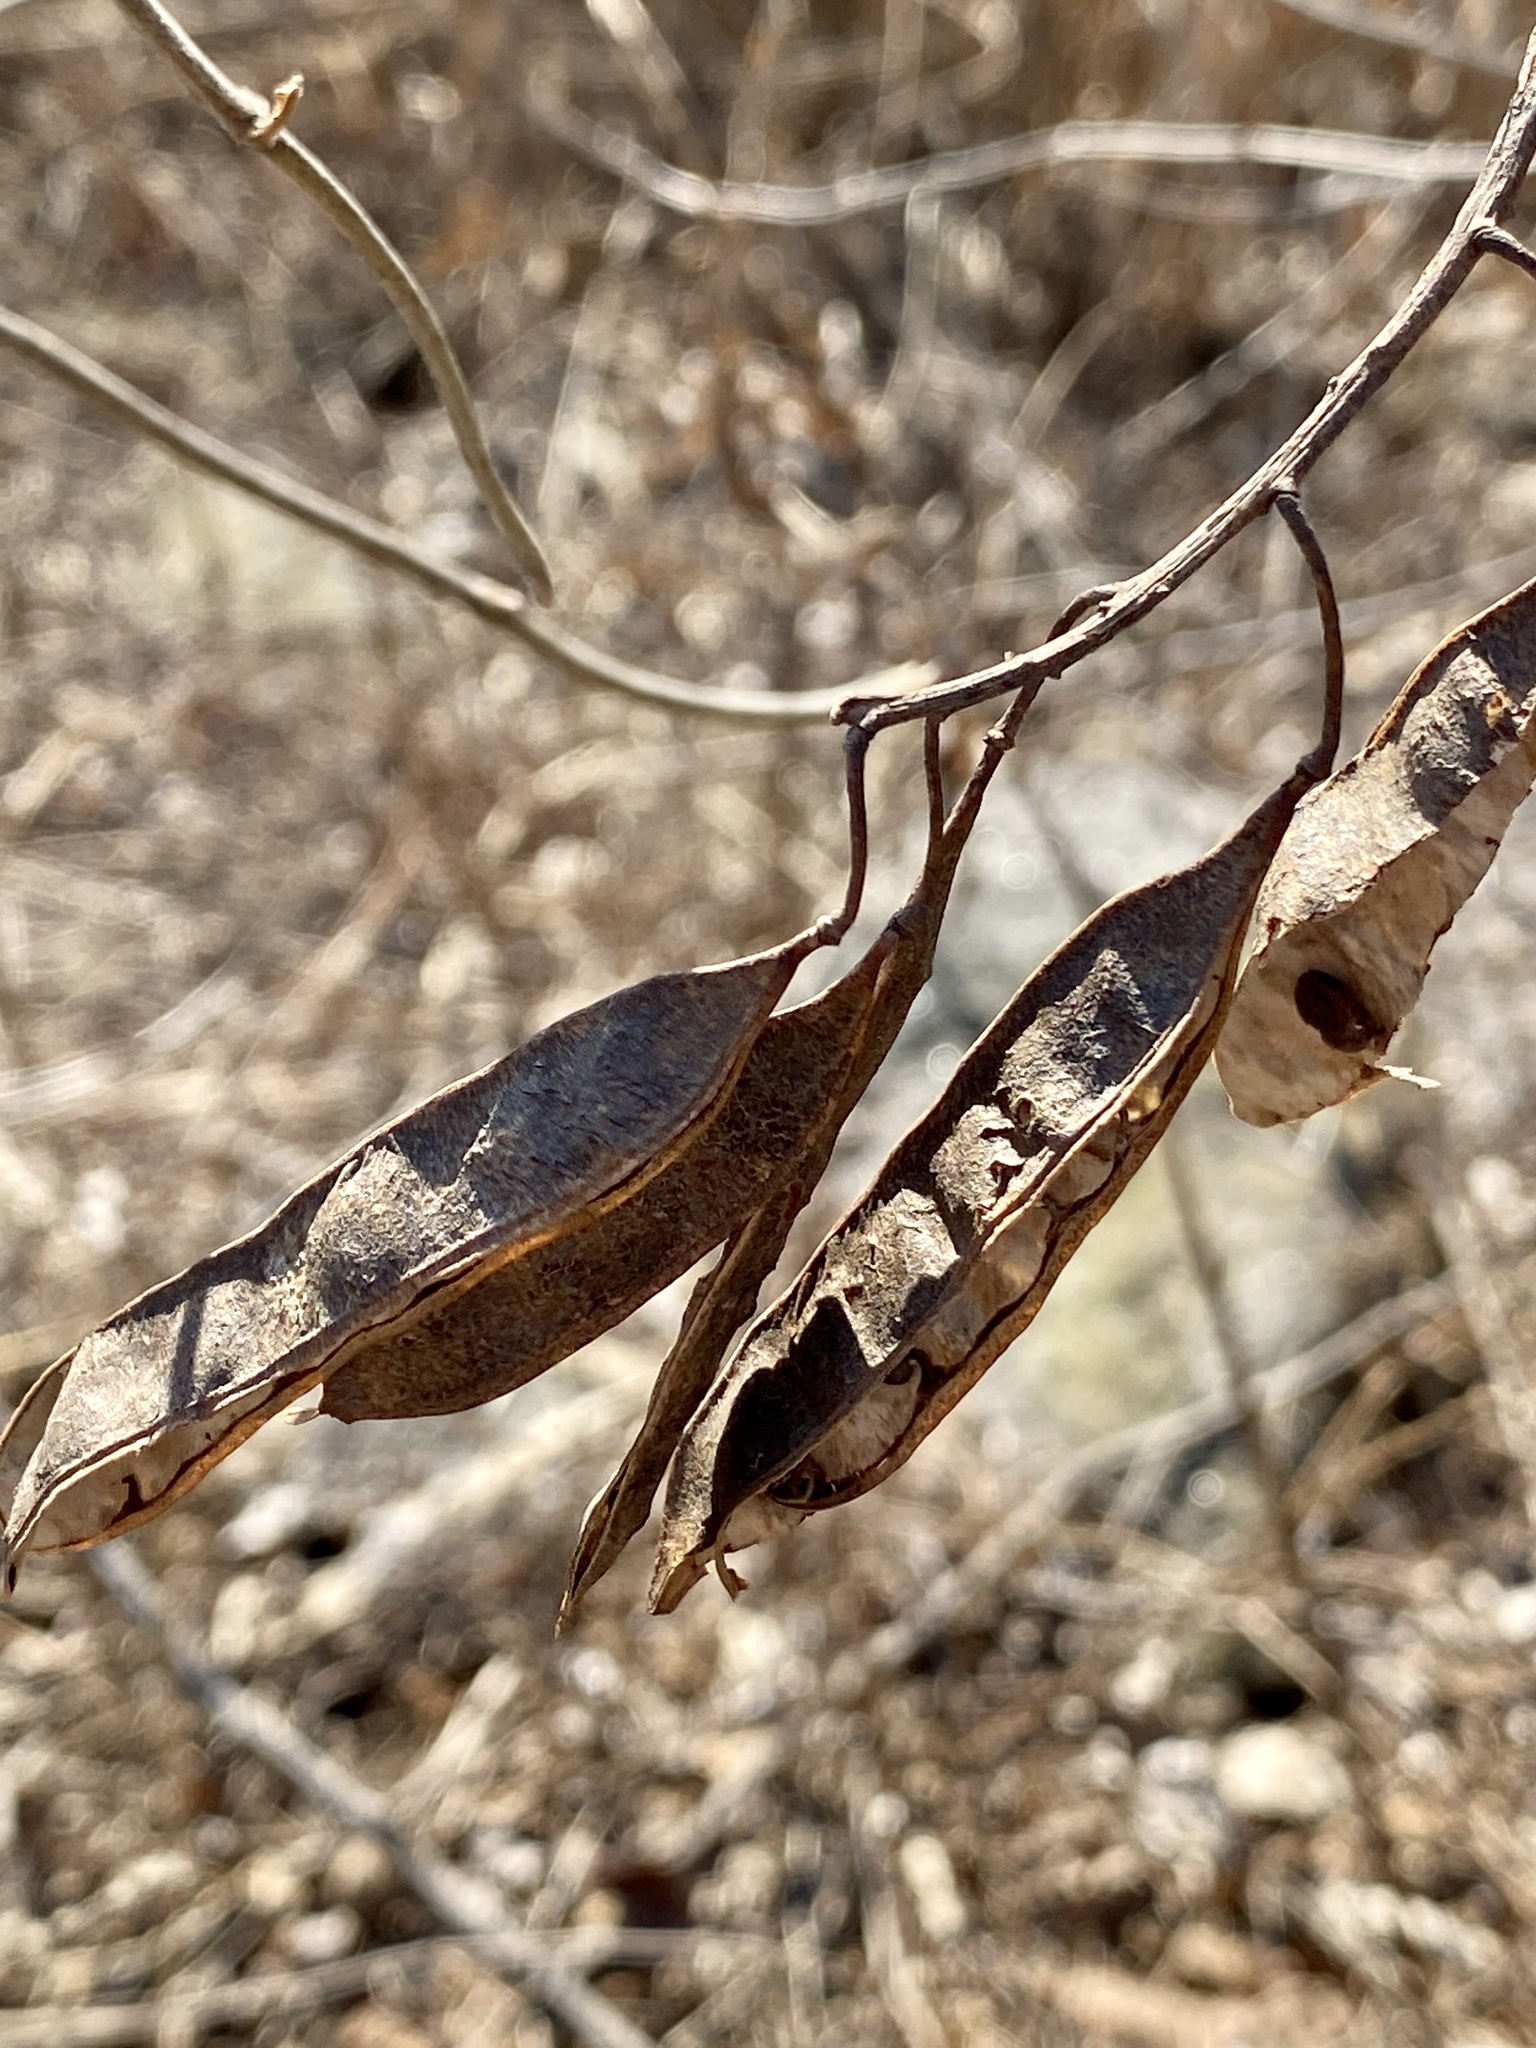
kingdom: Plantae
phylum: Tracheophyta
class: Magnoliopsida
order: Fabales
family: Fabaceae
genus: Robinia
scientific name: Robinia pseudoacacia
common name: Black locust
